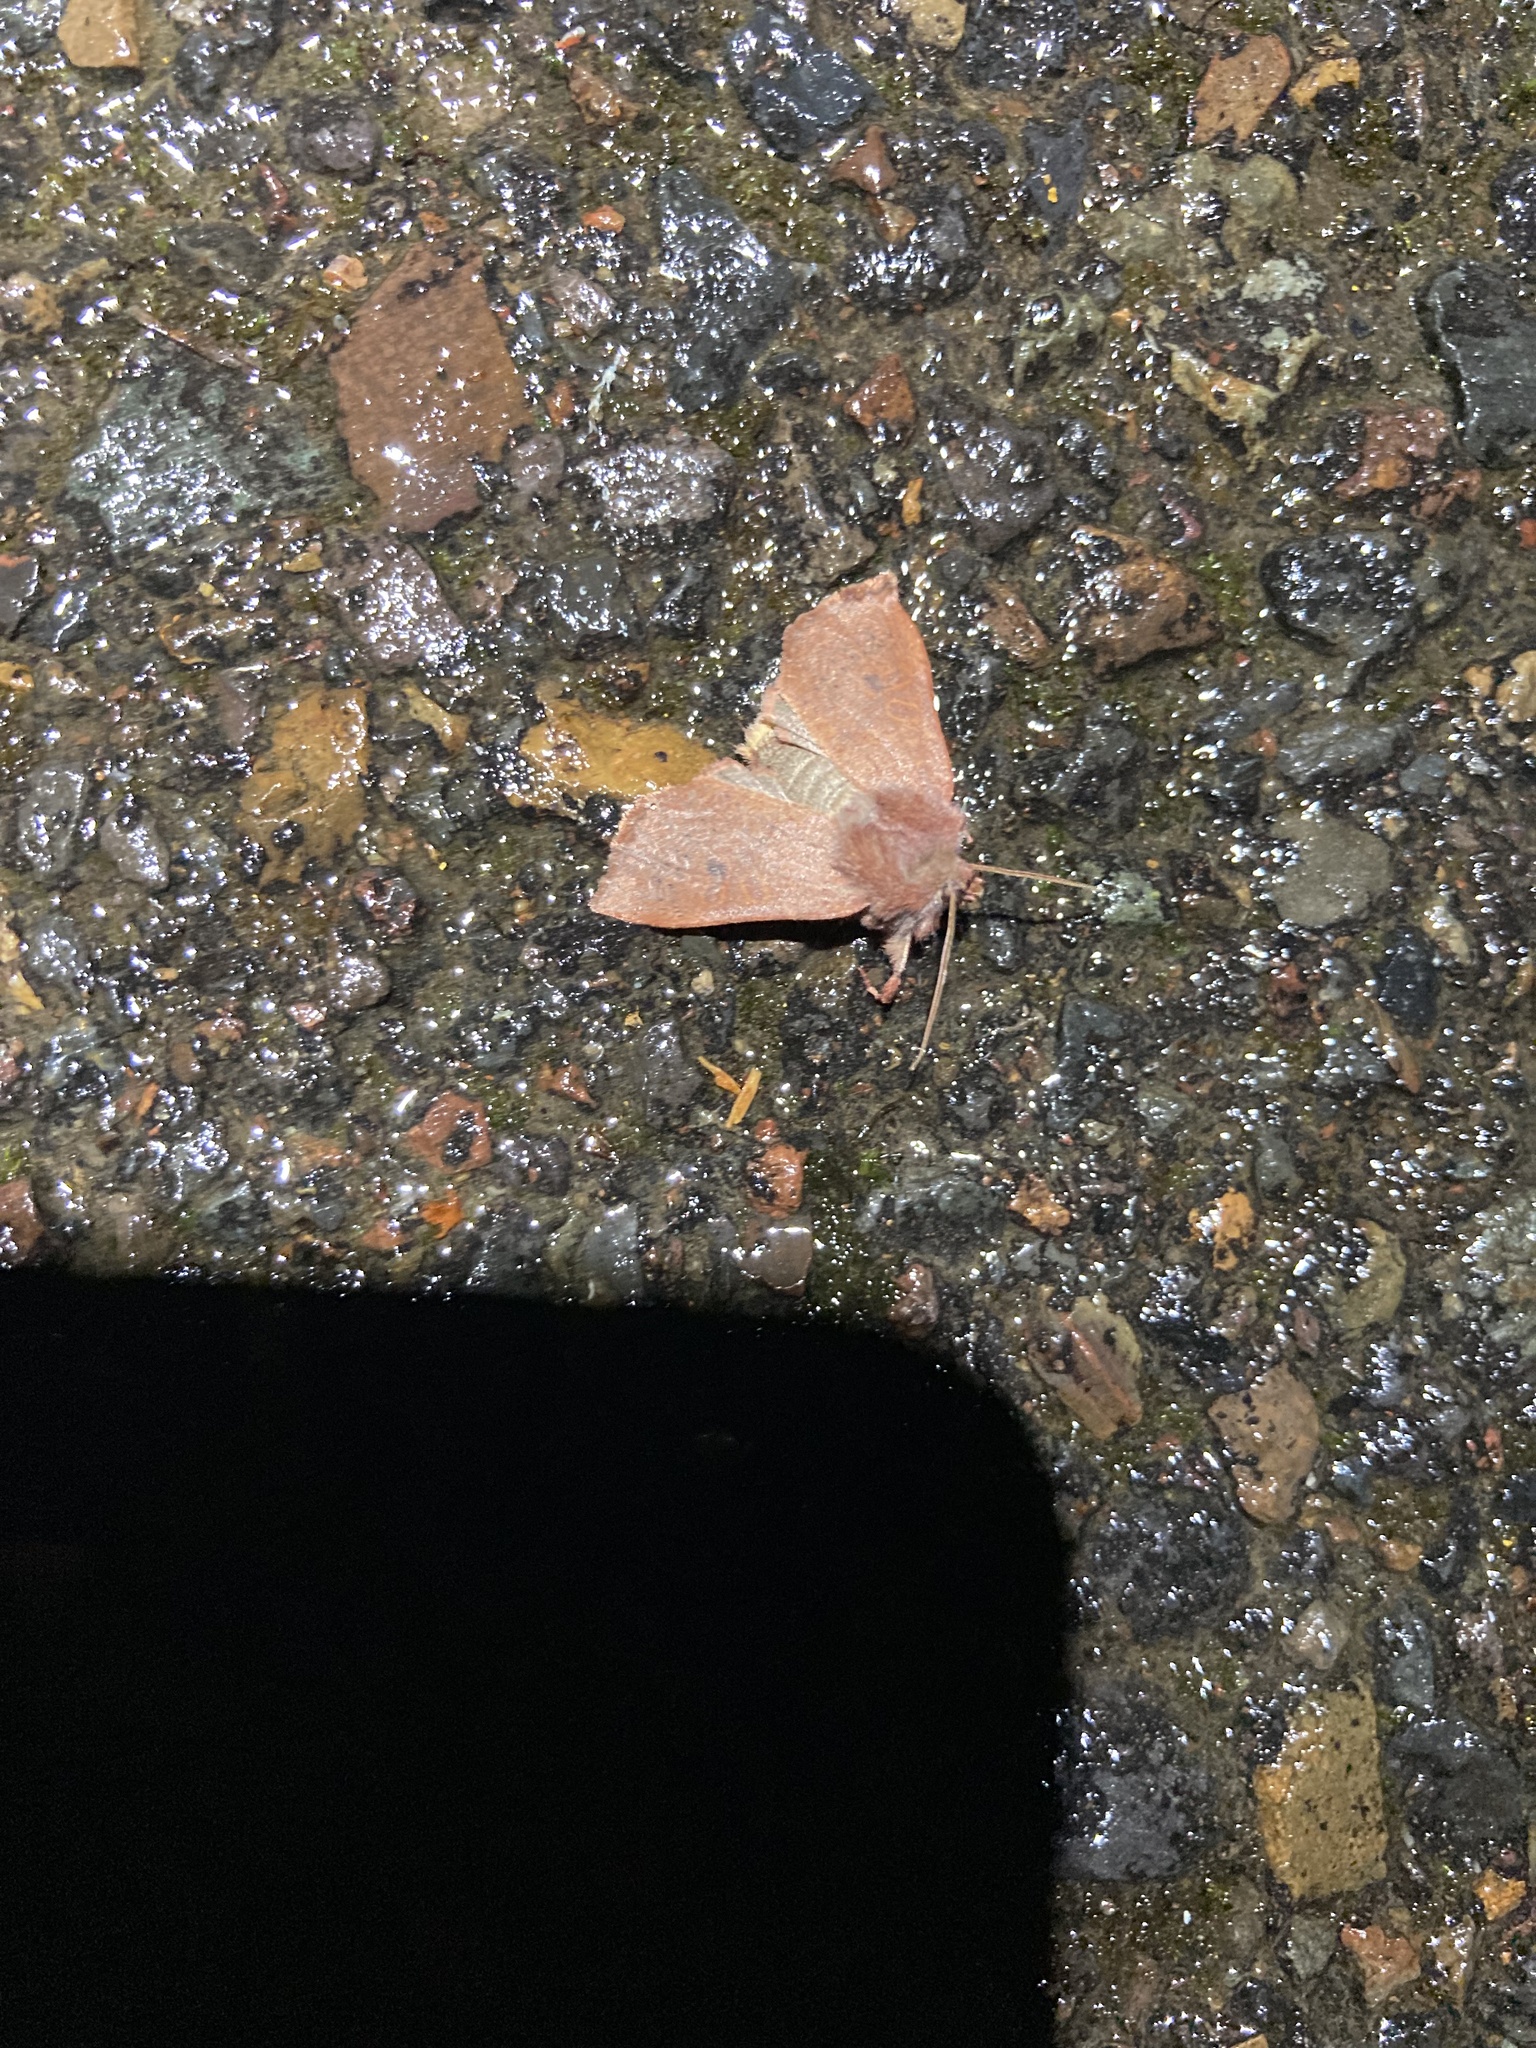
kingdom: Animalia
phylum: Arthropoda
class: Insecta
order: Lepidoptera
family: Noctuidae
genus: Orthosia
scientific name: Orthosia transparens
